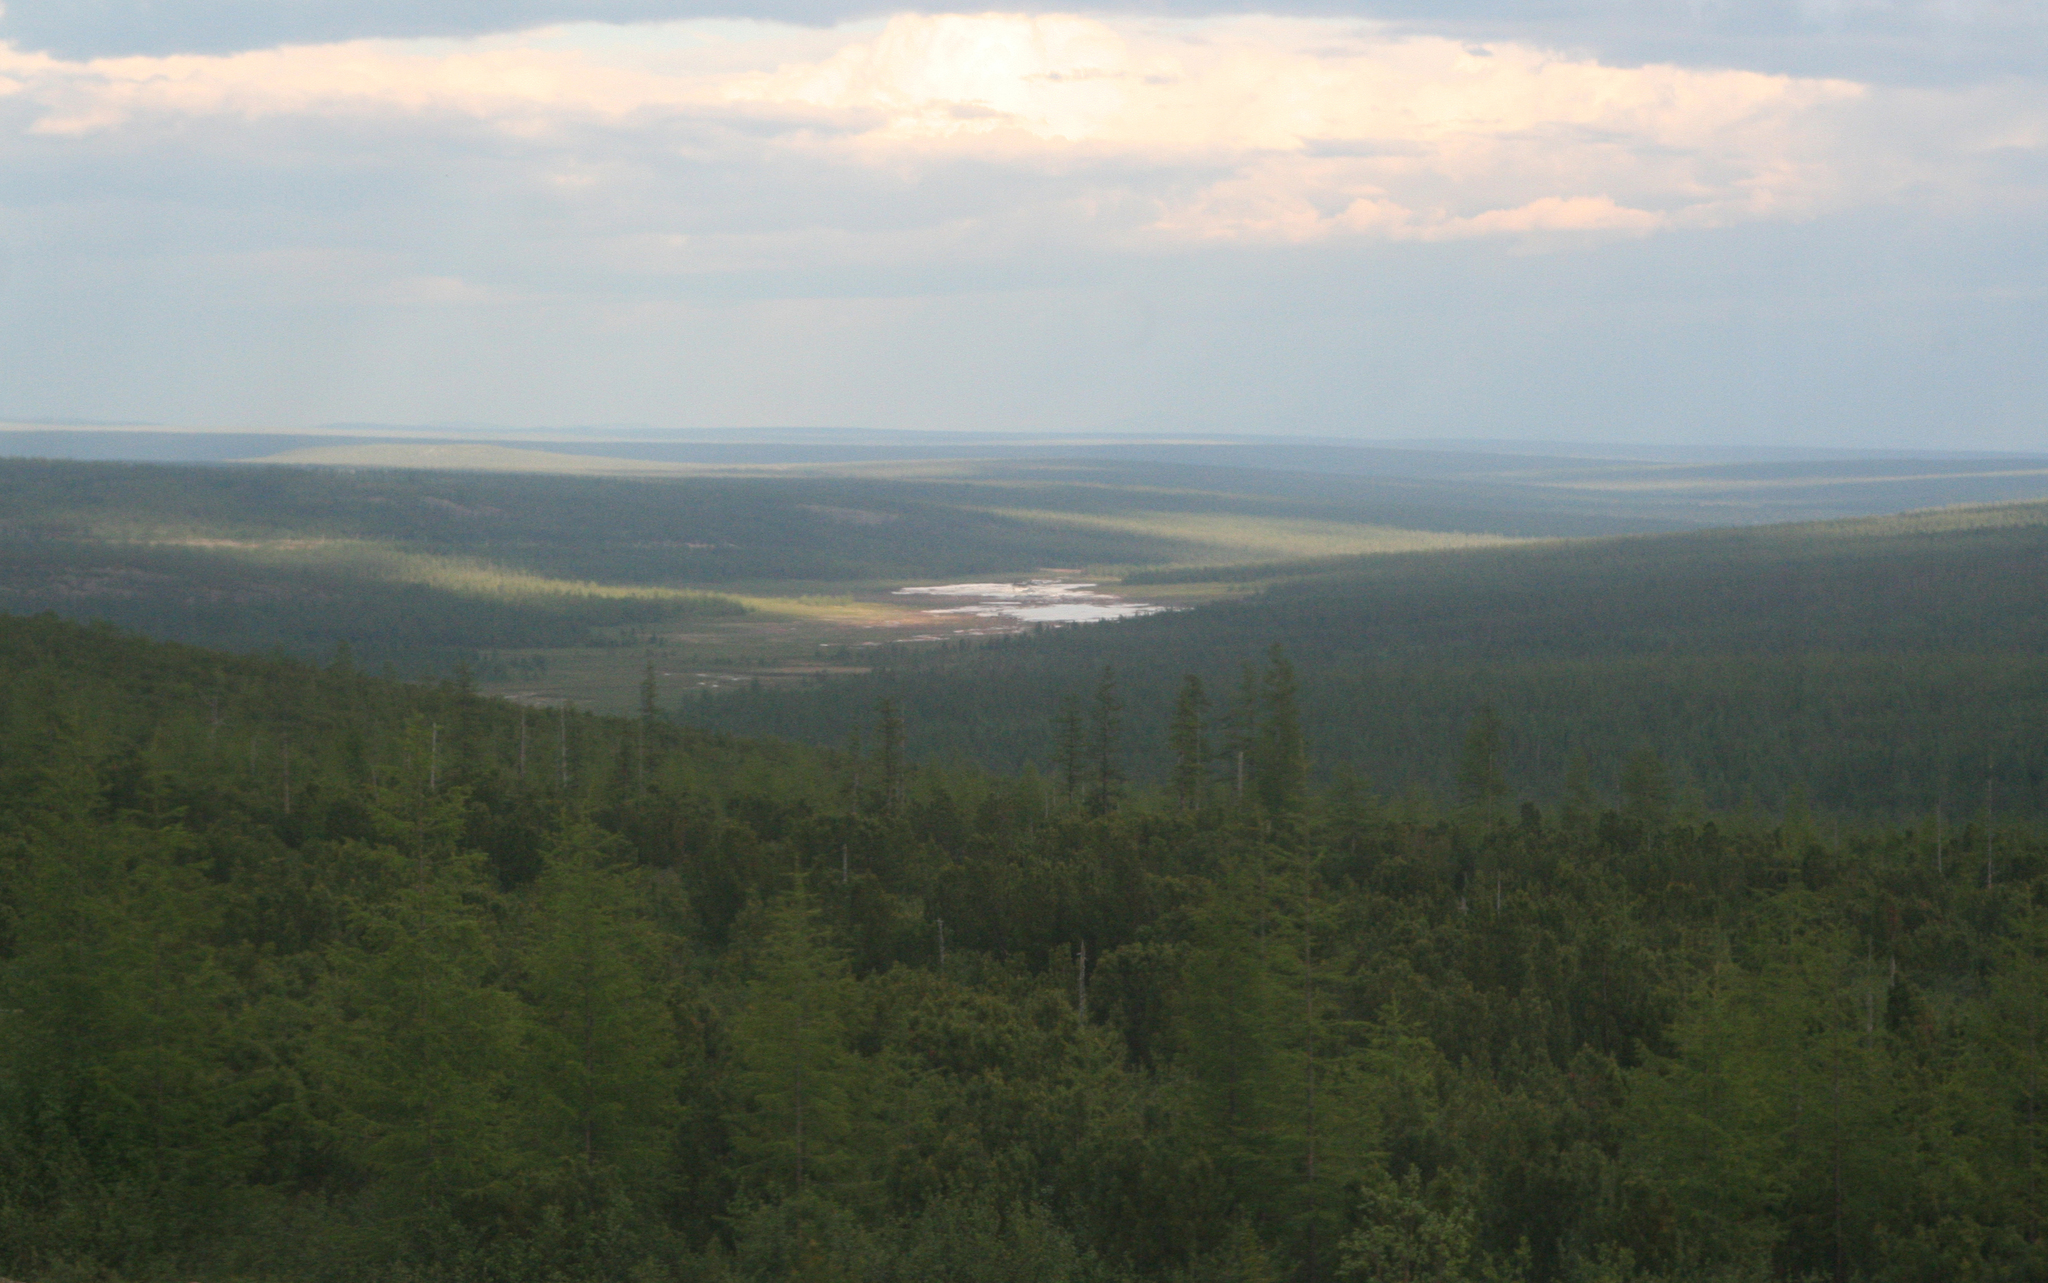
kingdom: Plantae
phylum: Tracheophyta
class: Pinopsida
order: Pinales
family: Pinaceae
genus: Larix
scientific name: Larix gmelinii
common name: Dahurian larch
